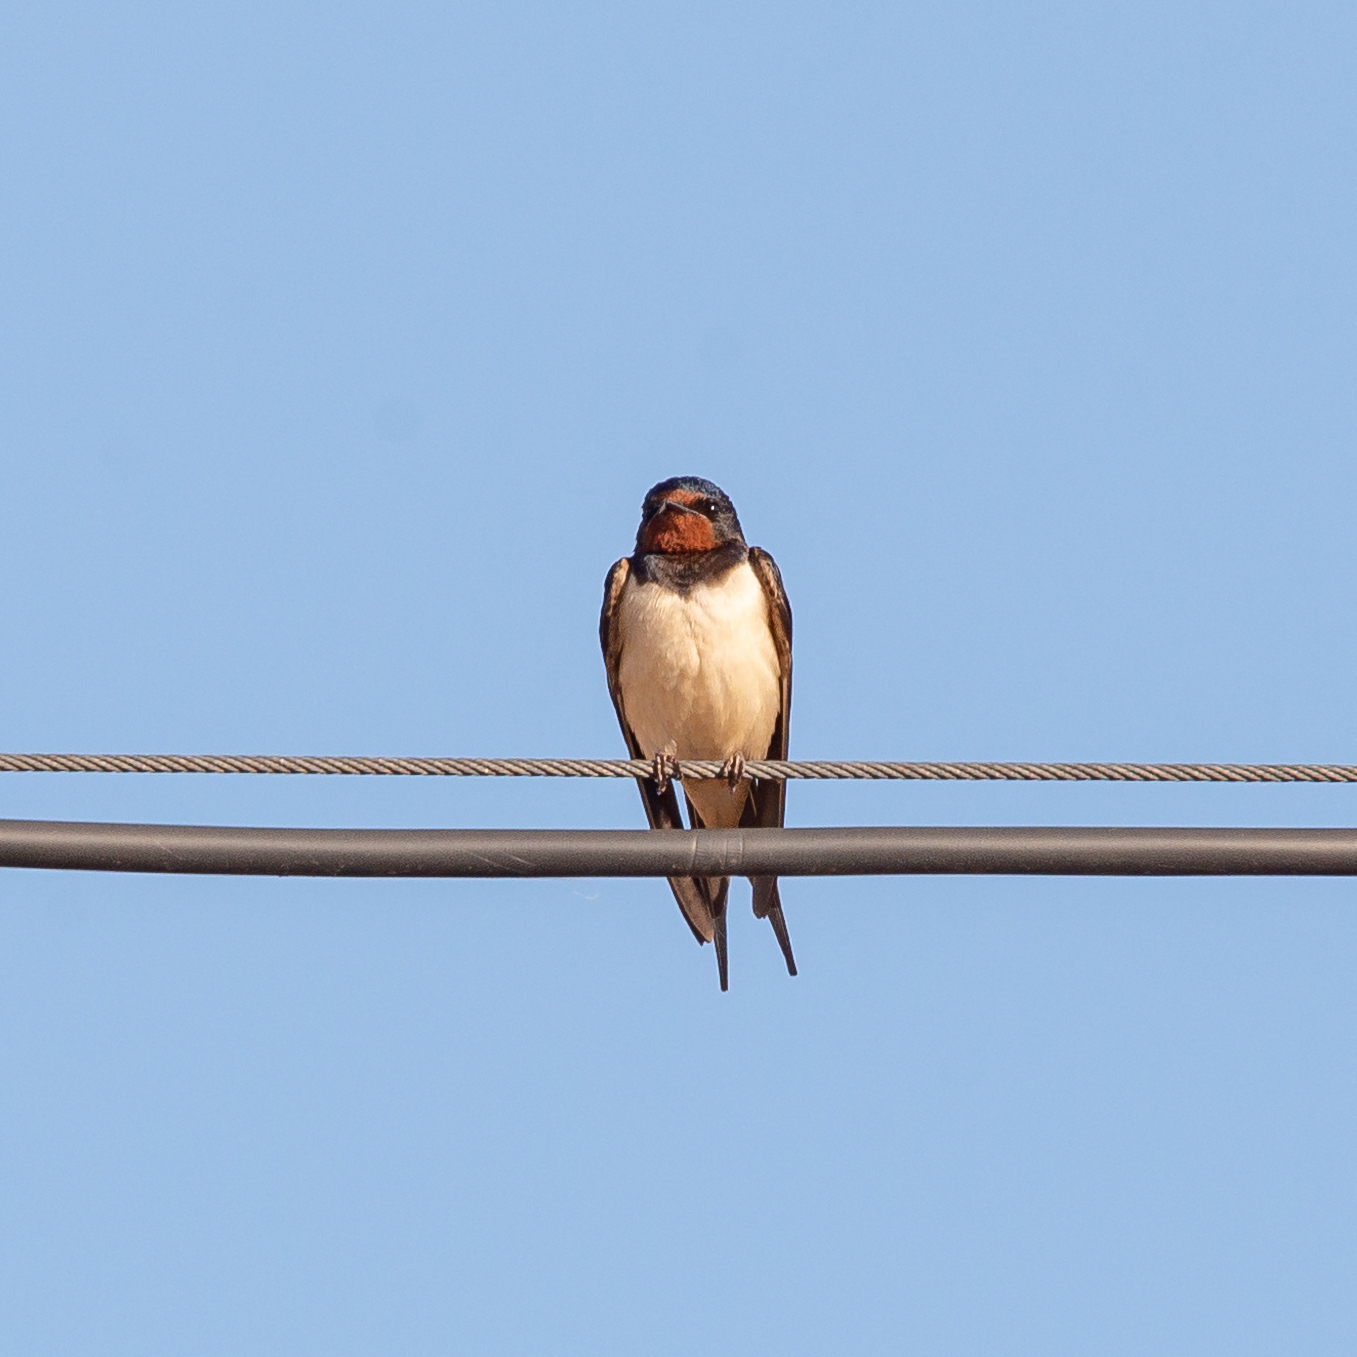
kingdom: Animalia
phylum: Chordata
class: Aves
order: Passeriformes
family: Hirundinidae
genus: Hirundo
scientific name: Hirundo rustica
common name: Barn swallow
